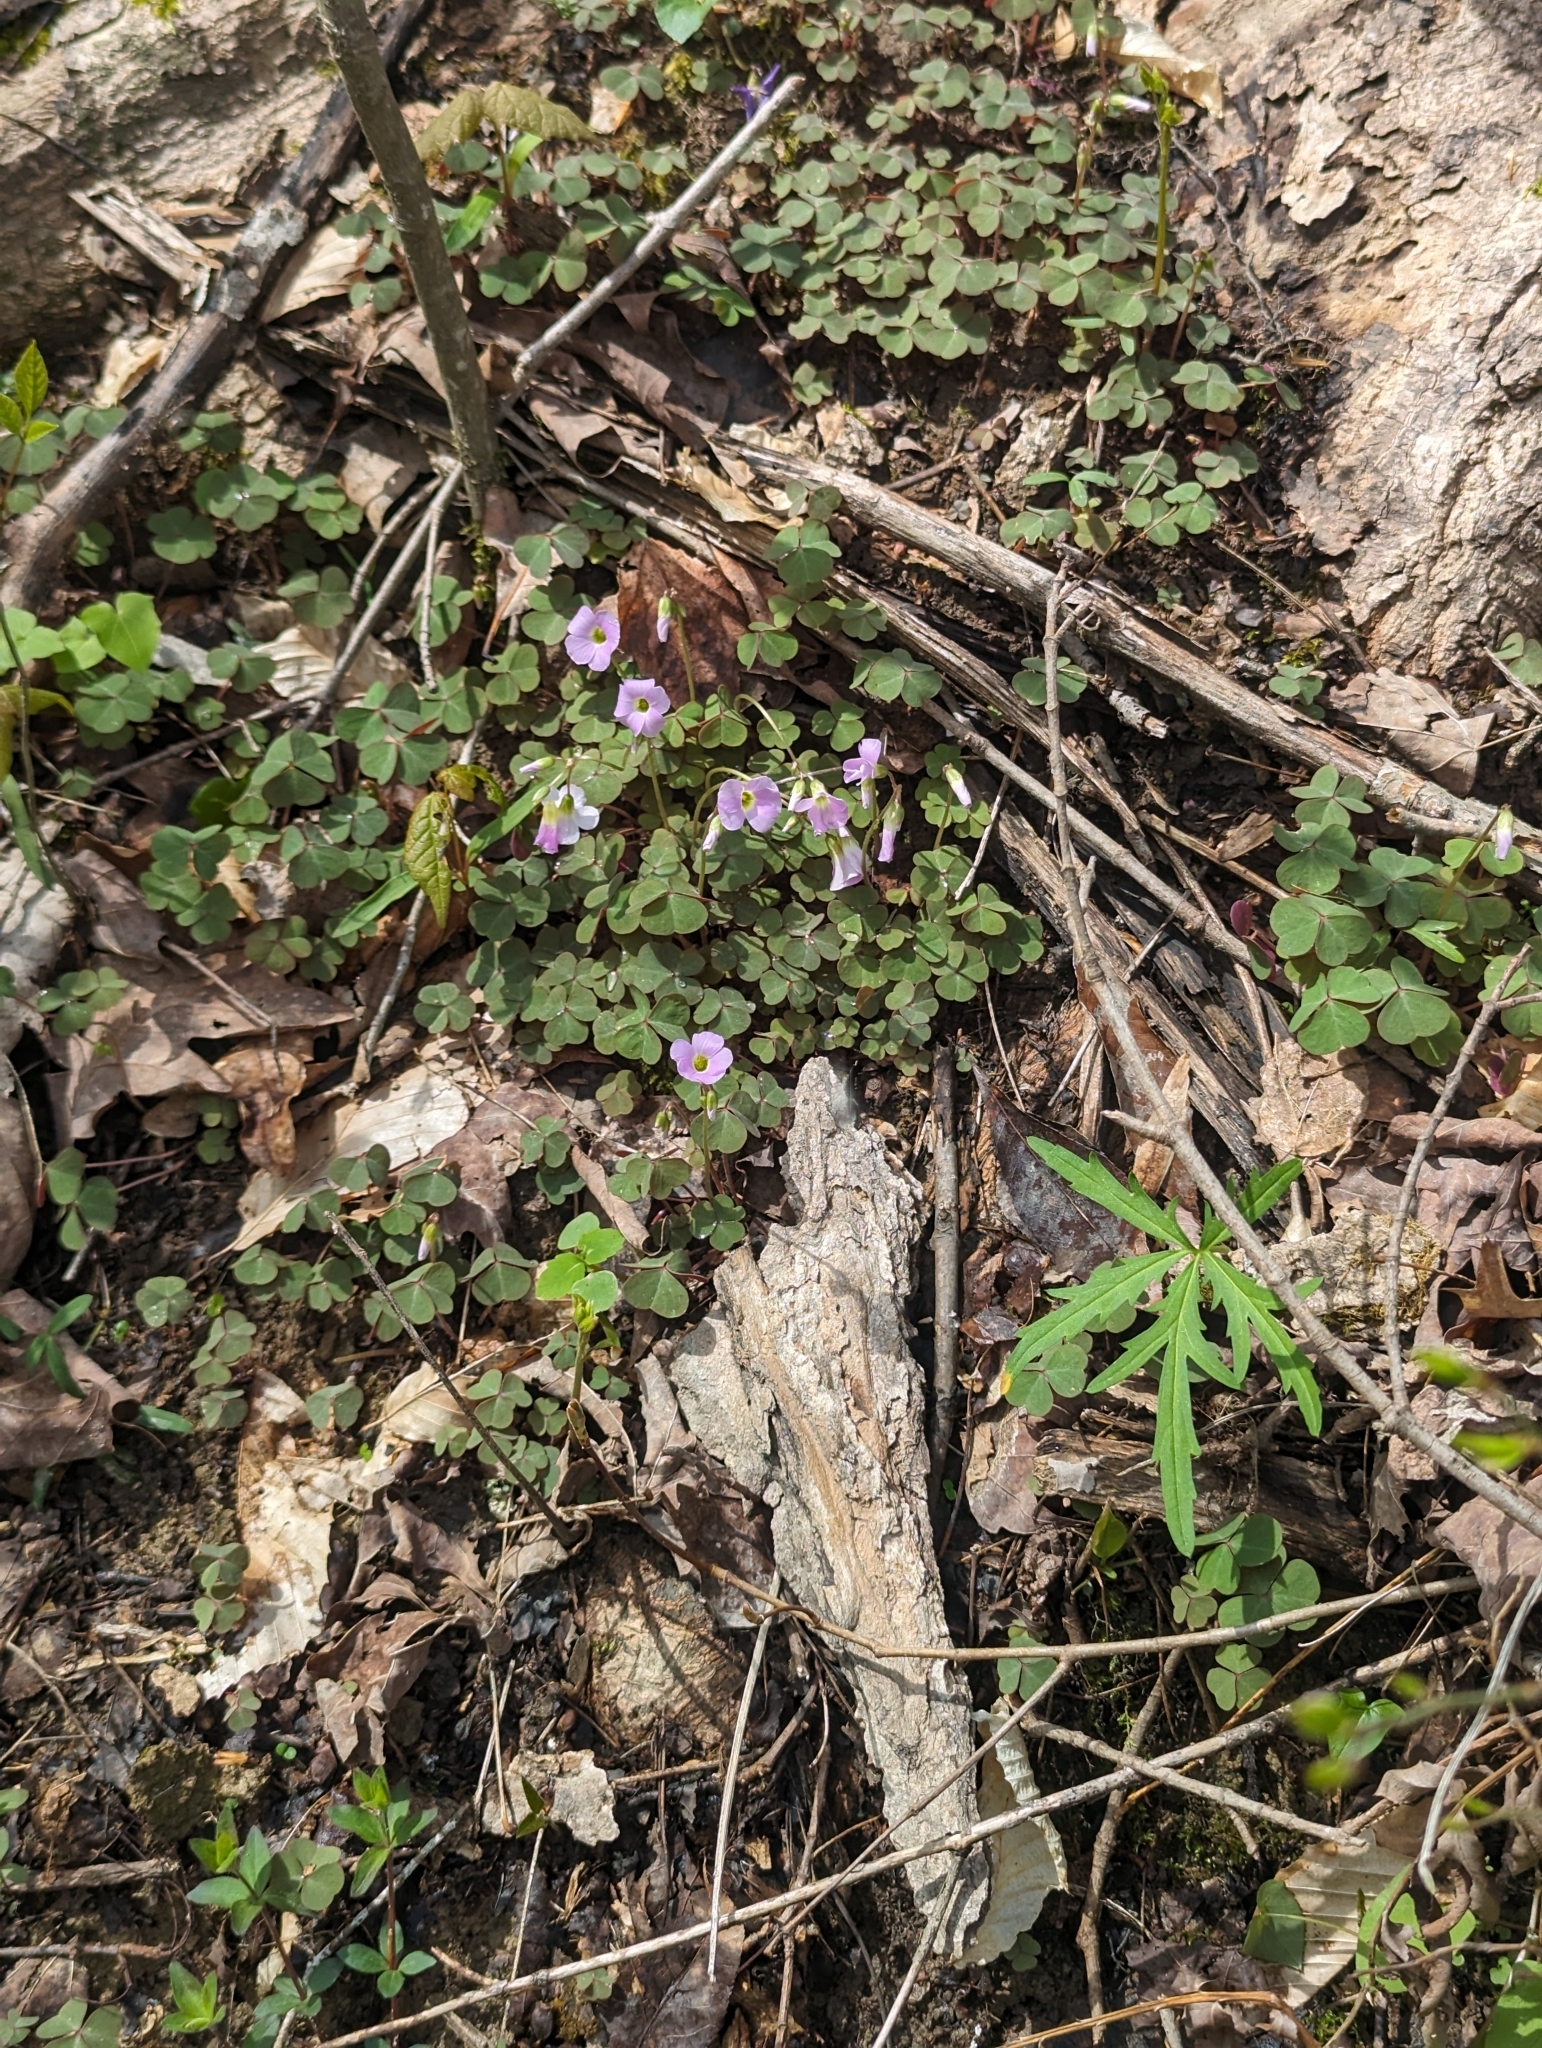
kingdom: Plantae
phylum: Tracheophyta
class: Magnoliopsida
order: Oxalidales
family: Oxalidaceae
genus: Oxalis
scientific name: Oxalis violacea
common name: Violet wood-sorrel
